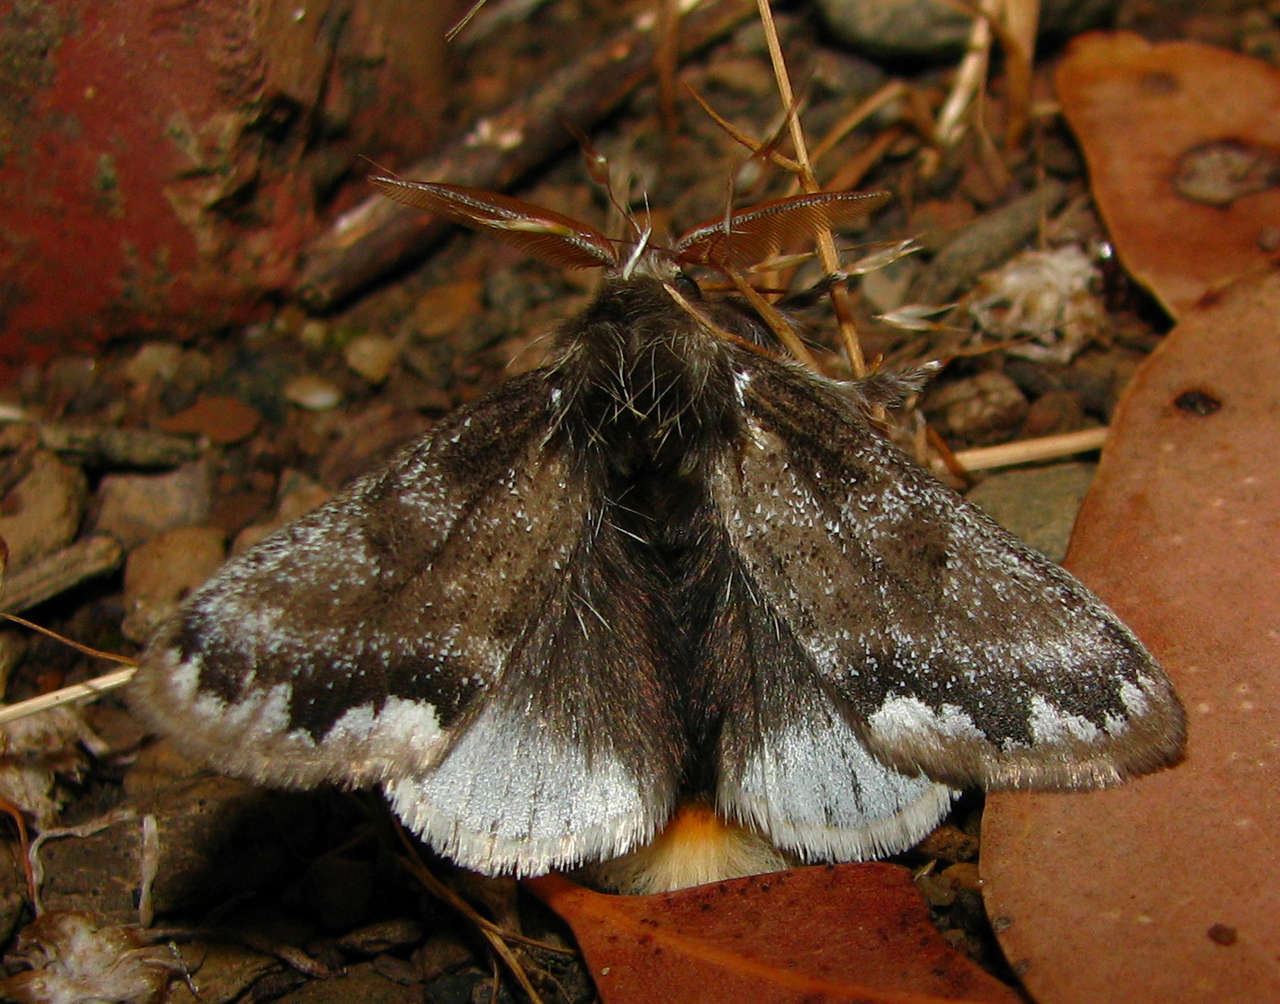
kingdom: Animalia
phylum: Arthropoda
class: Insecta
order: Lepidoptera
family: Erebidae
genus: Euproctis
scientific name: Euproctis
